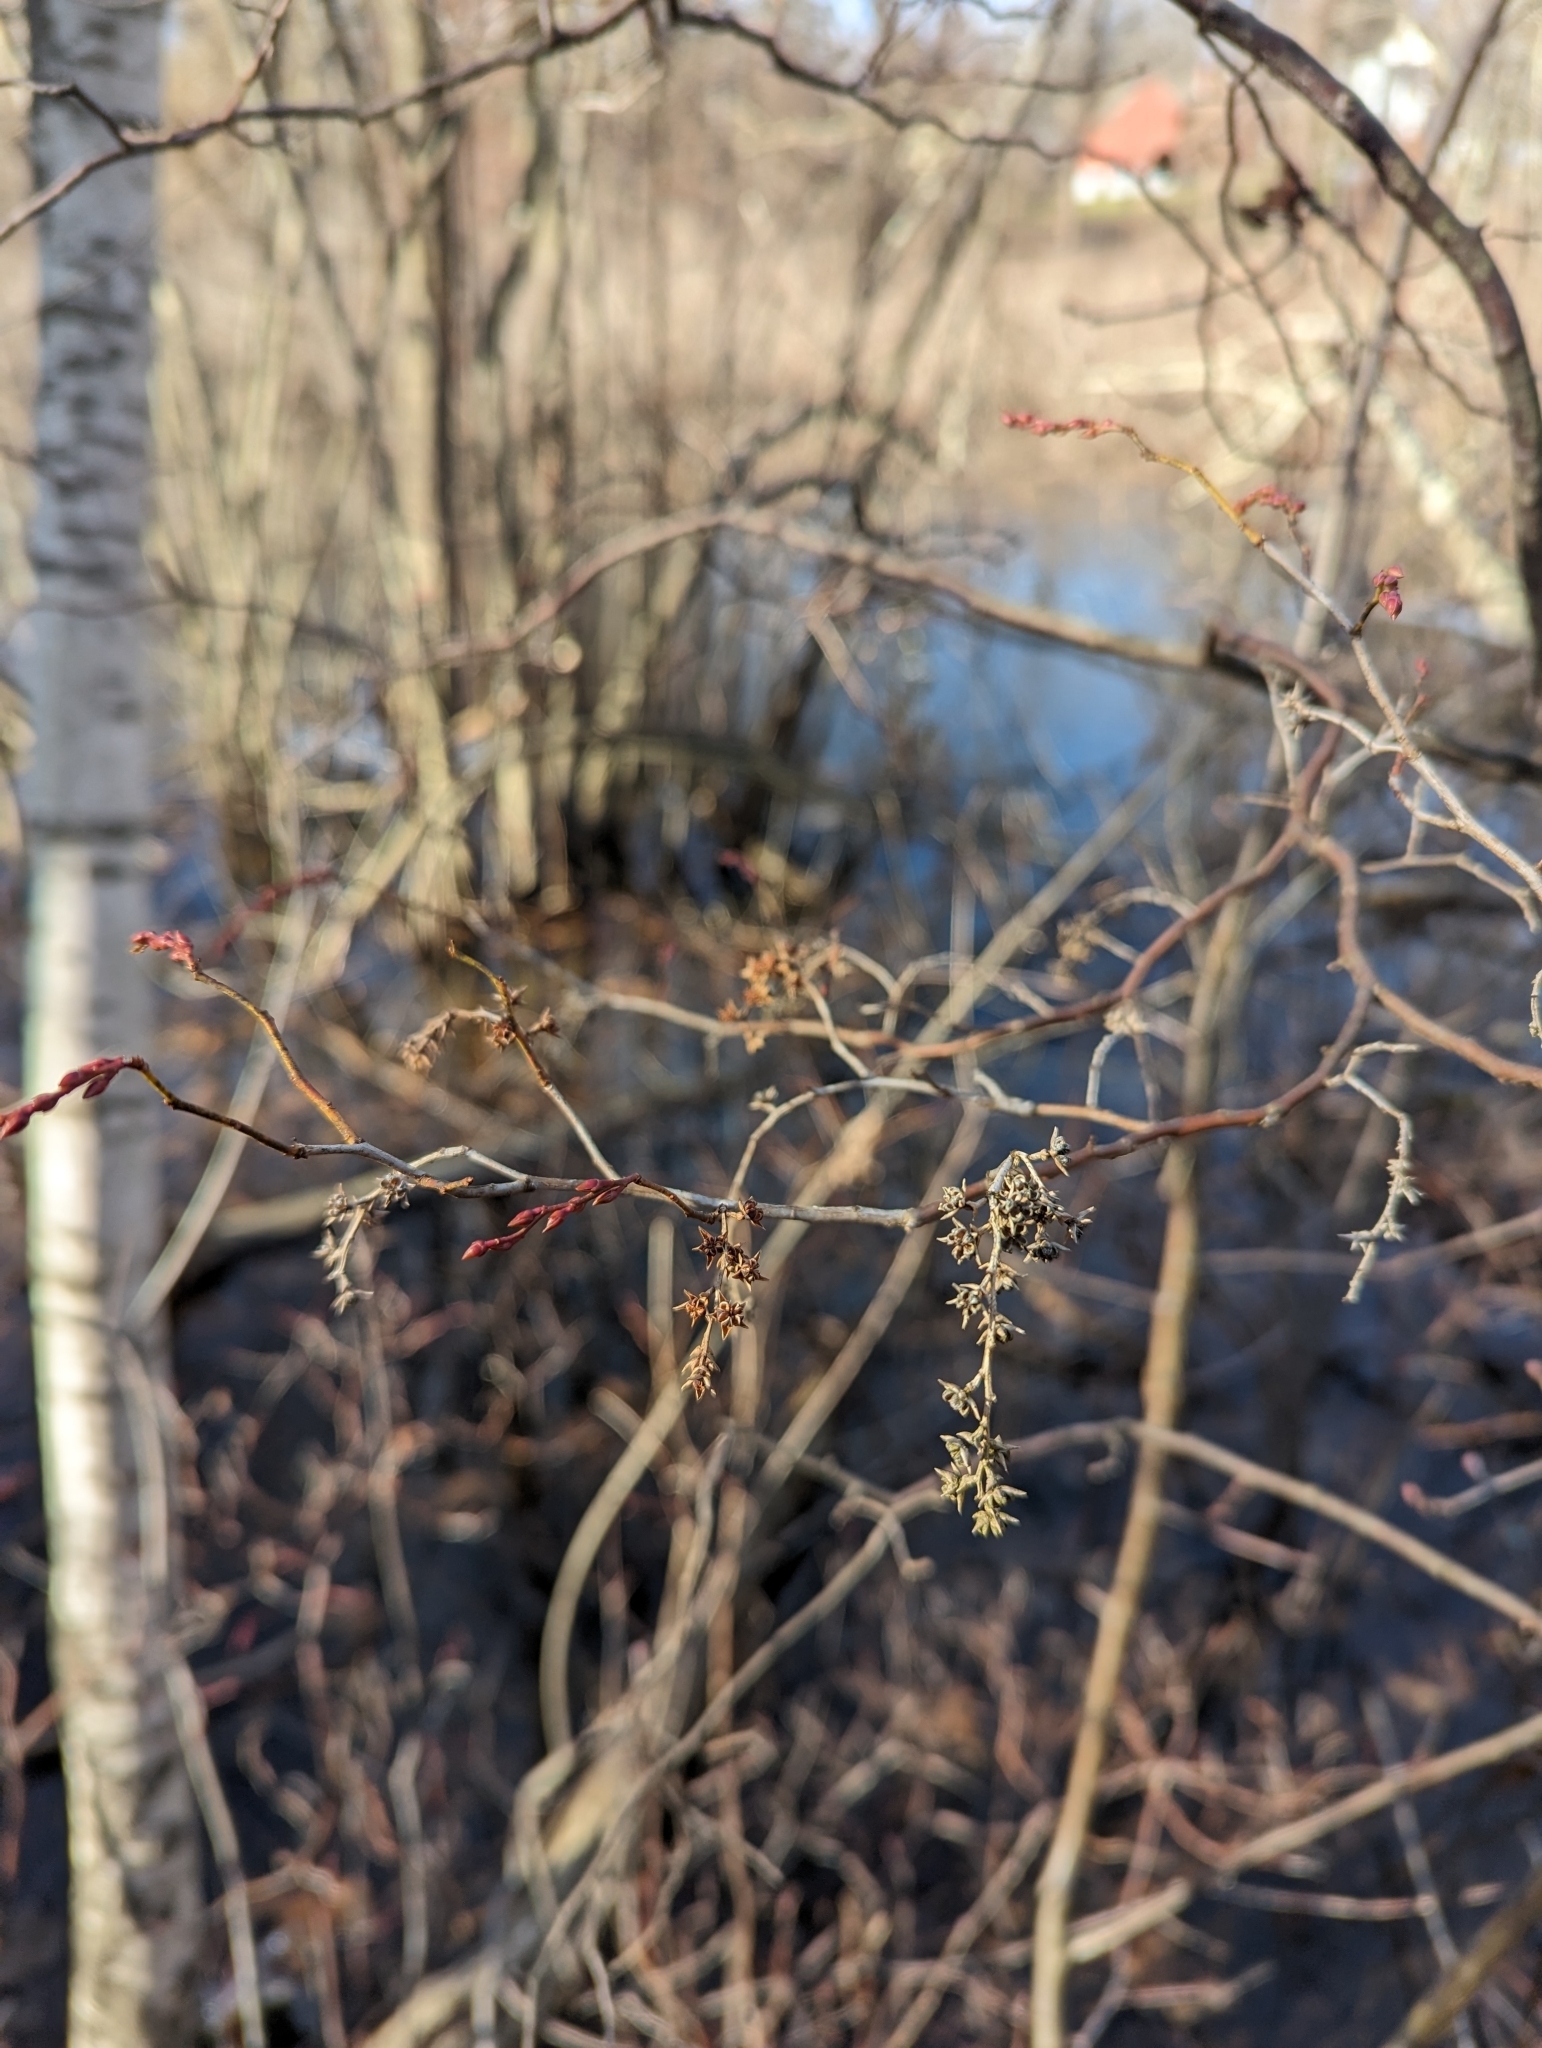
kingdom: Plantae
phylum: Tracheophyta
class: Magnoliopsida
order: Ericales
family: Ericaceae
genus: Eubotrys
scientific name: Eubotrys racemosa
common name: Fetterbush
